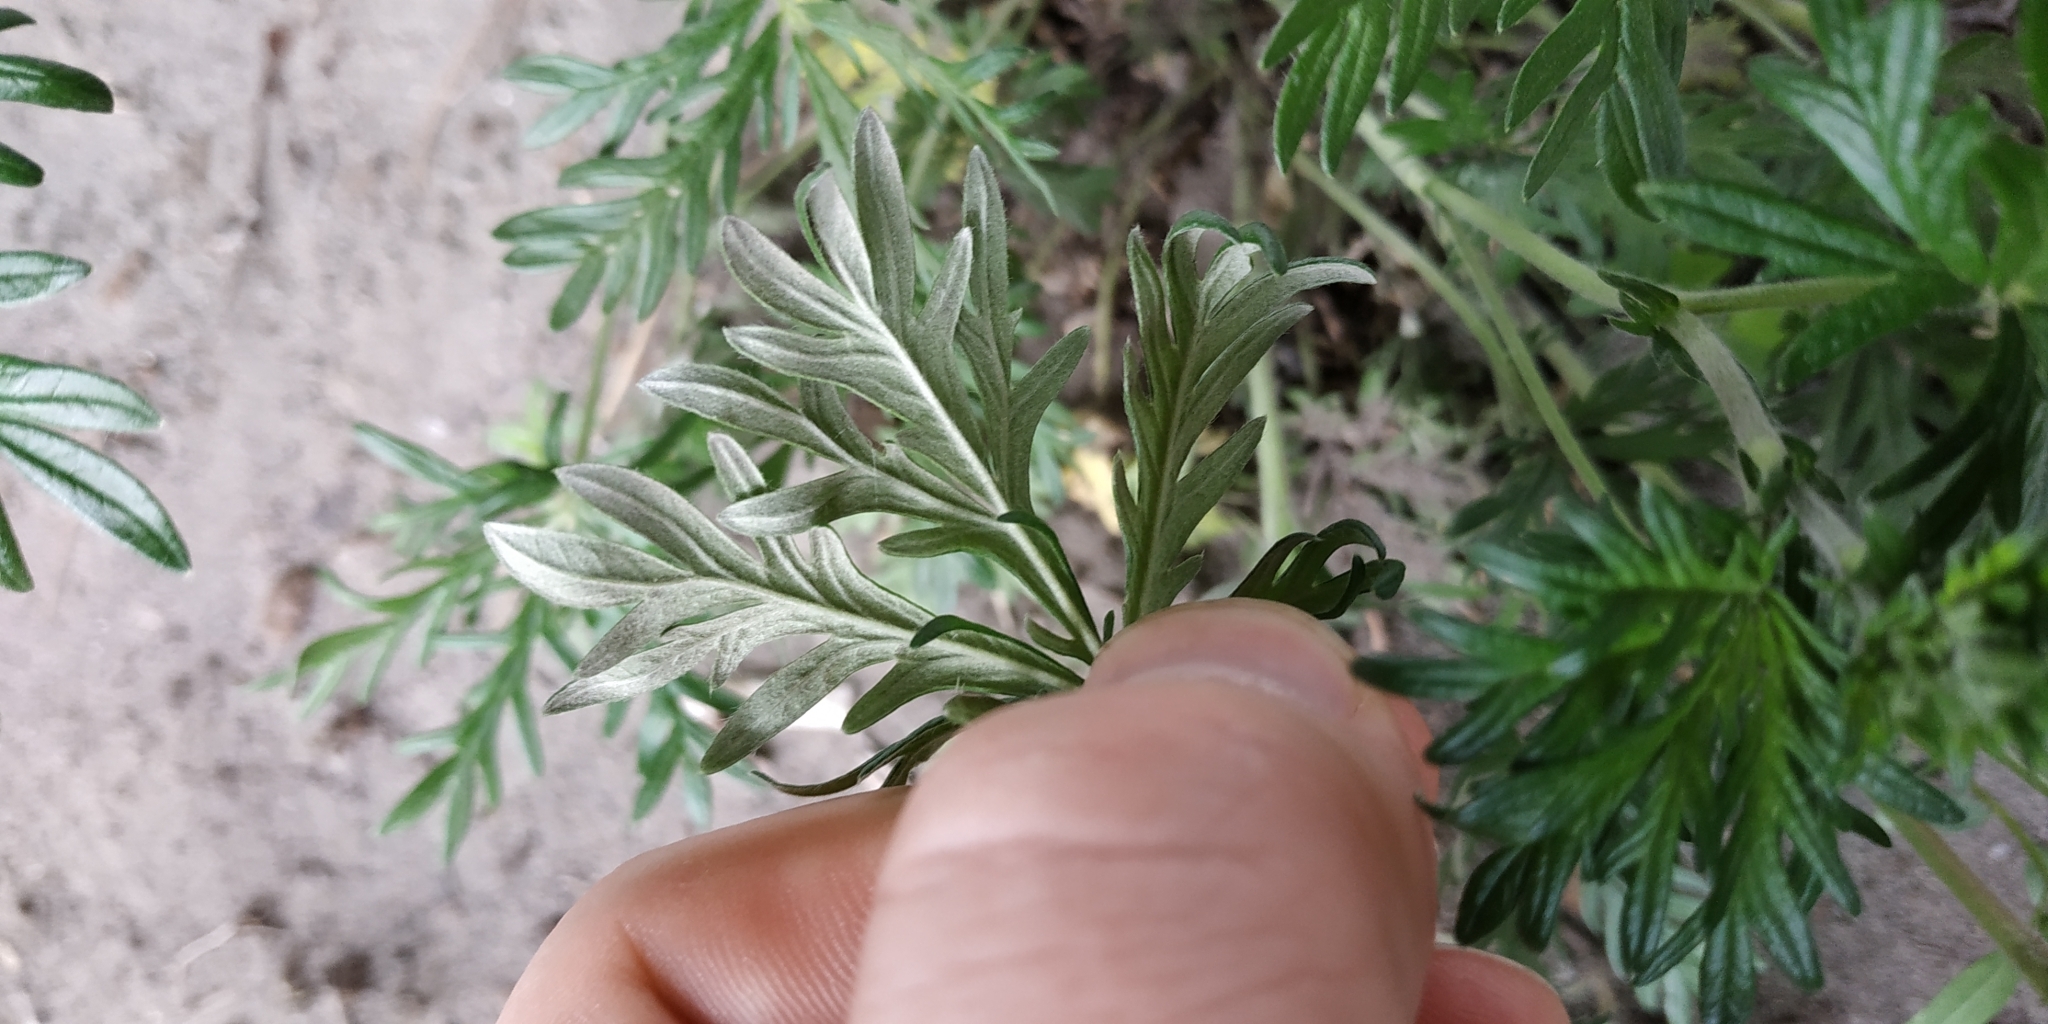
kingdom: Plantae
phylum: Tracheophyta
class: Magnoliopsida
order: Rosales
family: Rosaceae
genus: Potentilla
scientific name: Potentilla argentea
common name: Hoary cinquefoil
